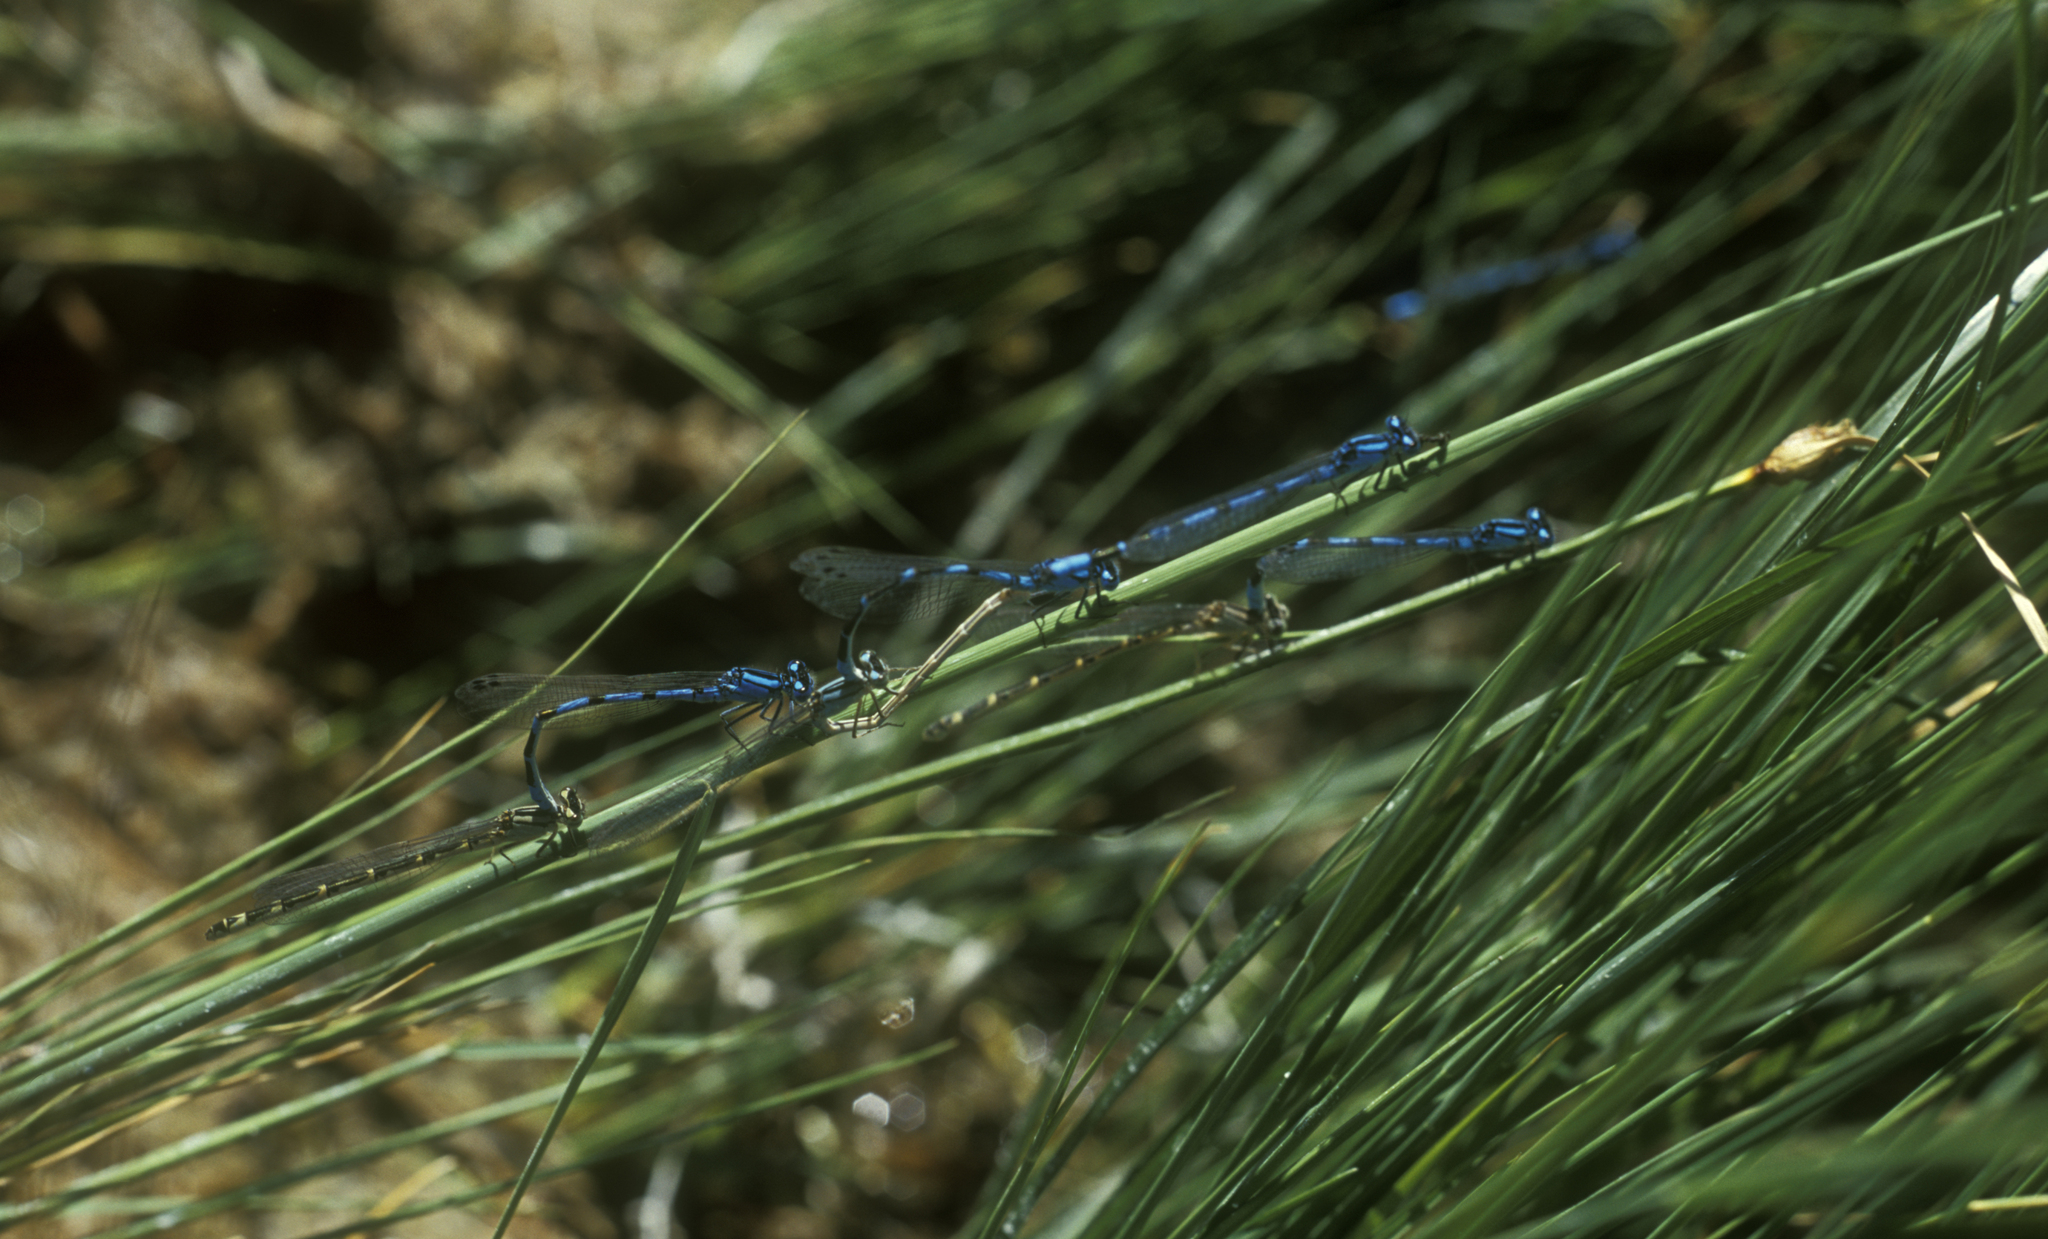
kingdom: Animalia
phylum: Arthropoda
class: Insecta
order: Odonata
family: Coenagrionidae
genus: Enallagma
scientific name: Enallagma cyathigerum
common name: Common blue damselfly
